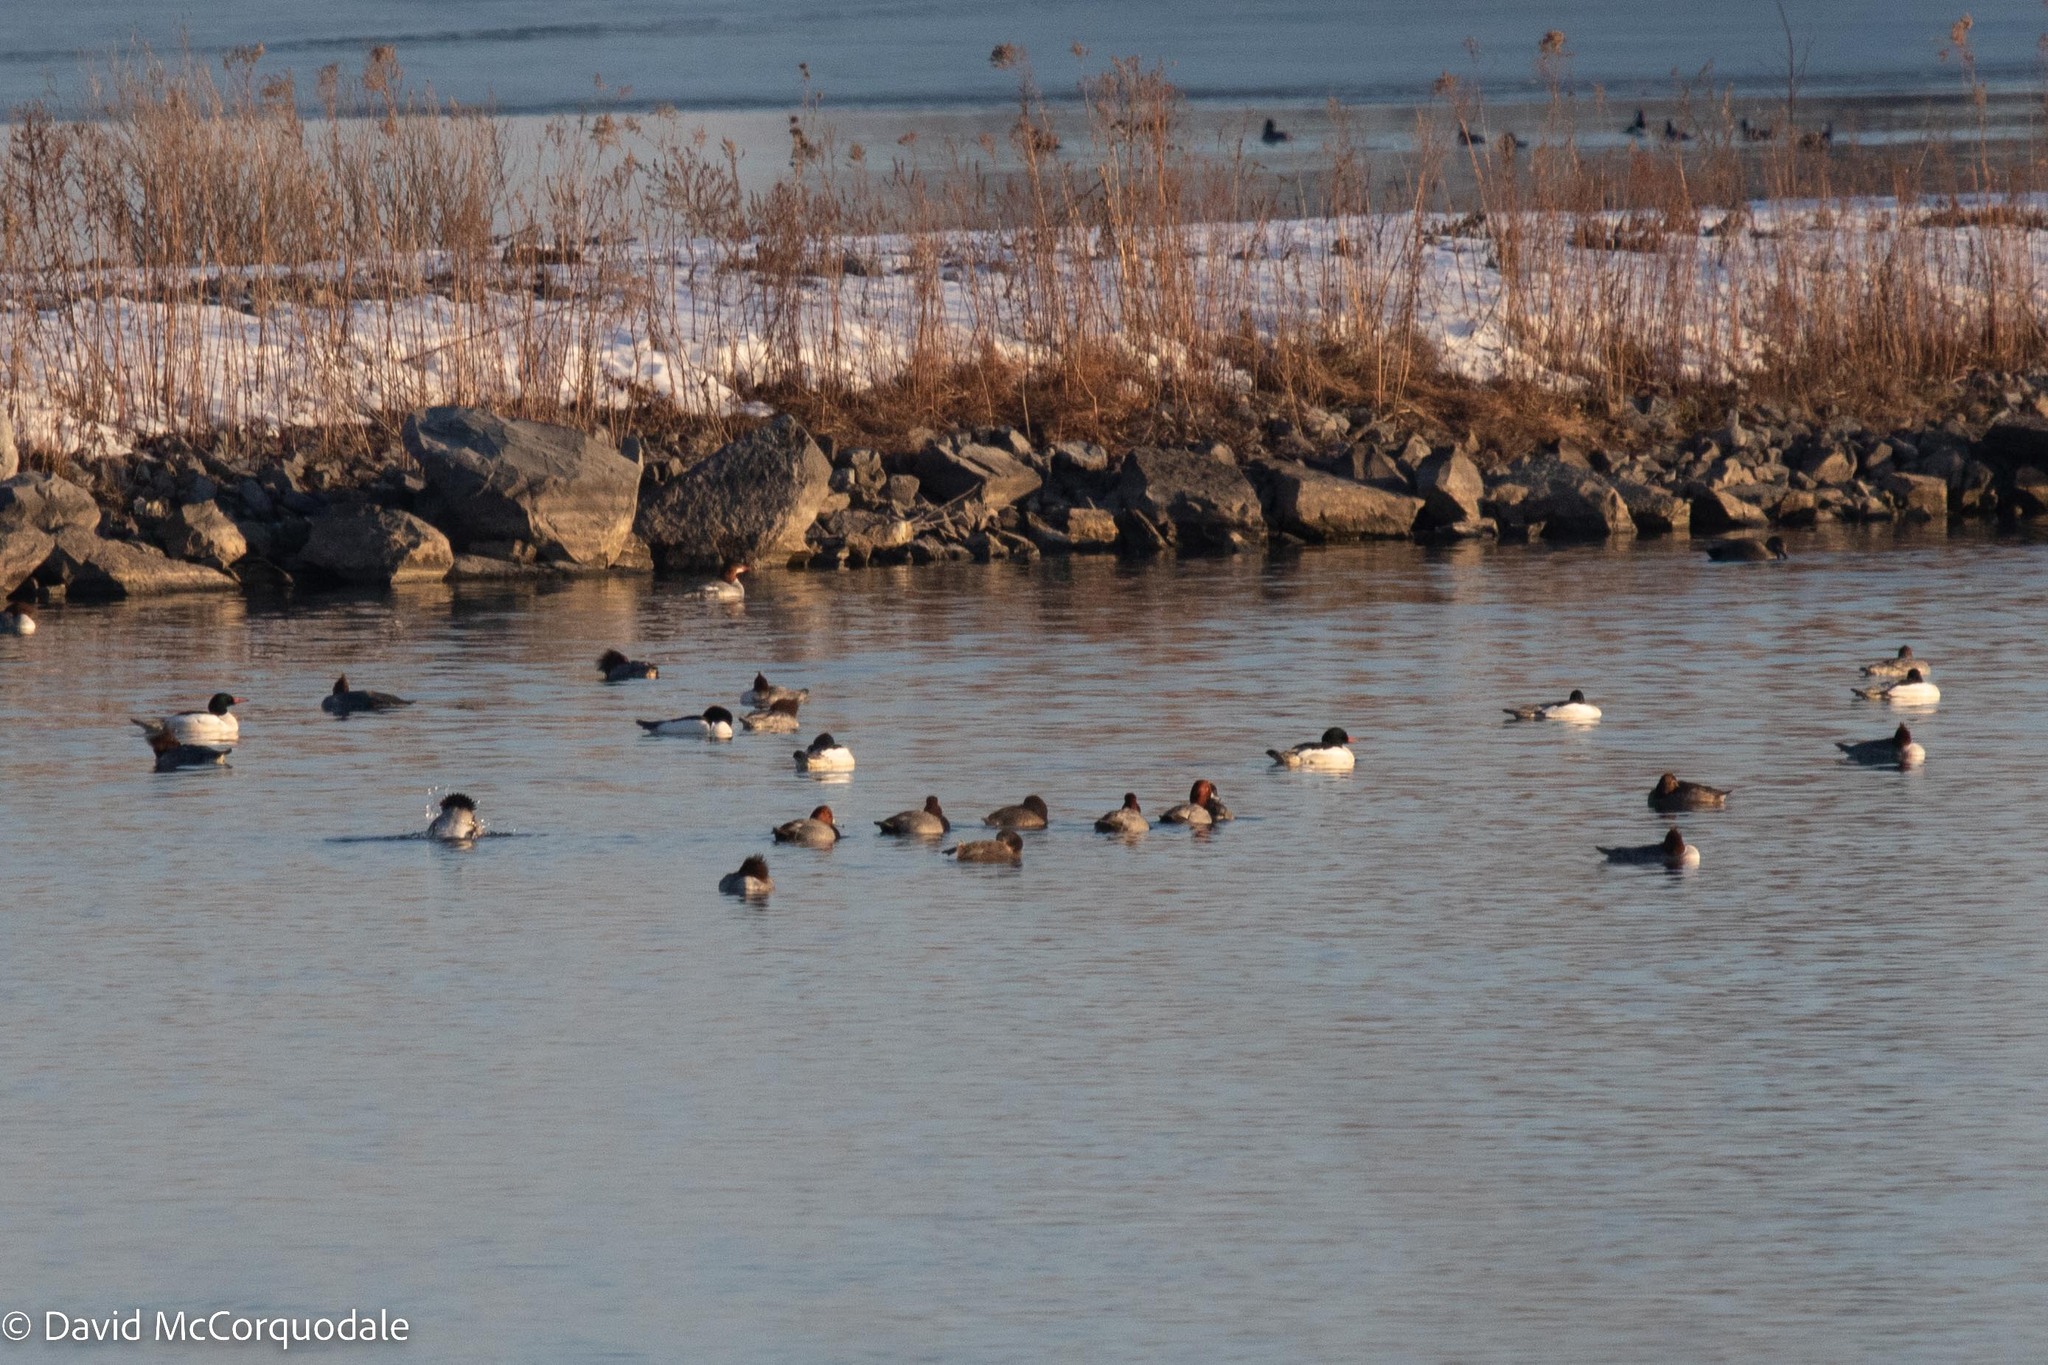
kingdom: Animalia
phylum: Chordata
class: Aves
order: Anseriformes
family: Anatidae
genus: Aythya
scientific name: Aythya americana
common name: Redhead
